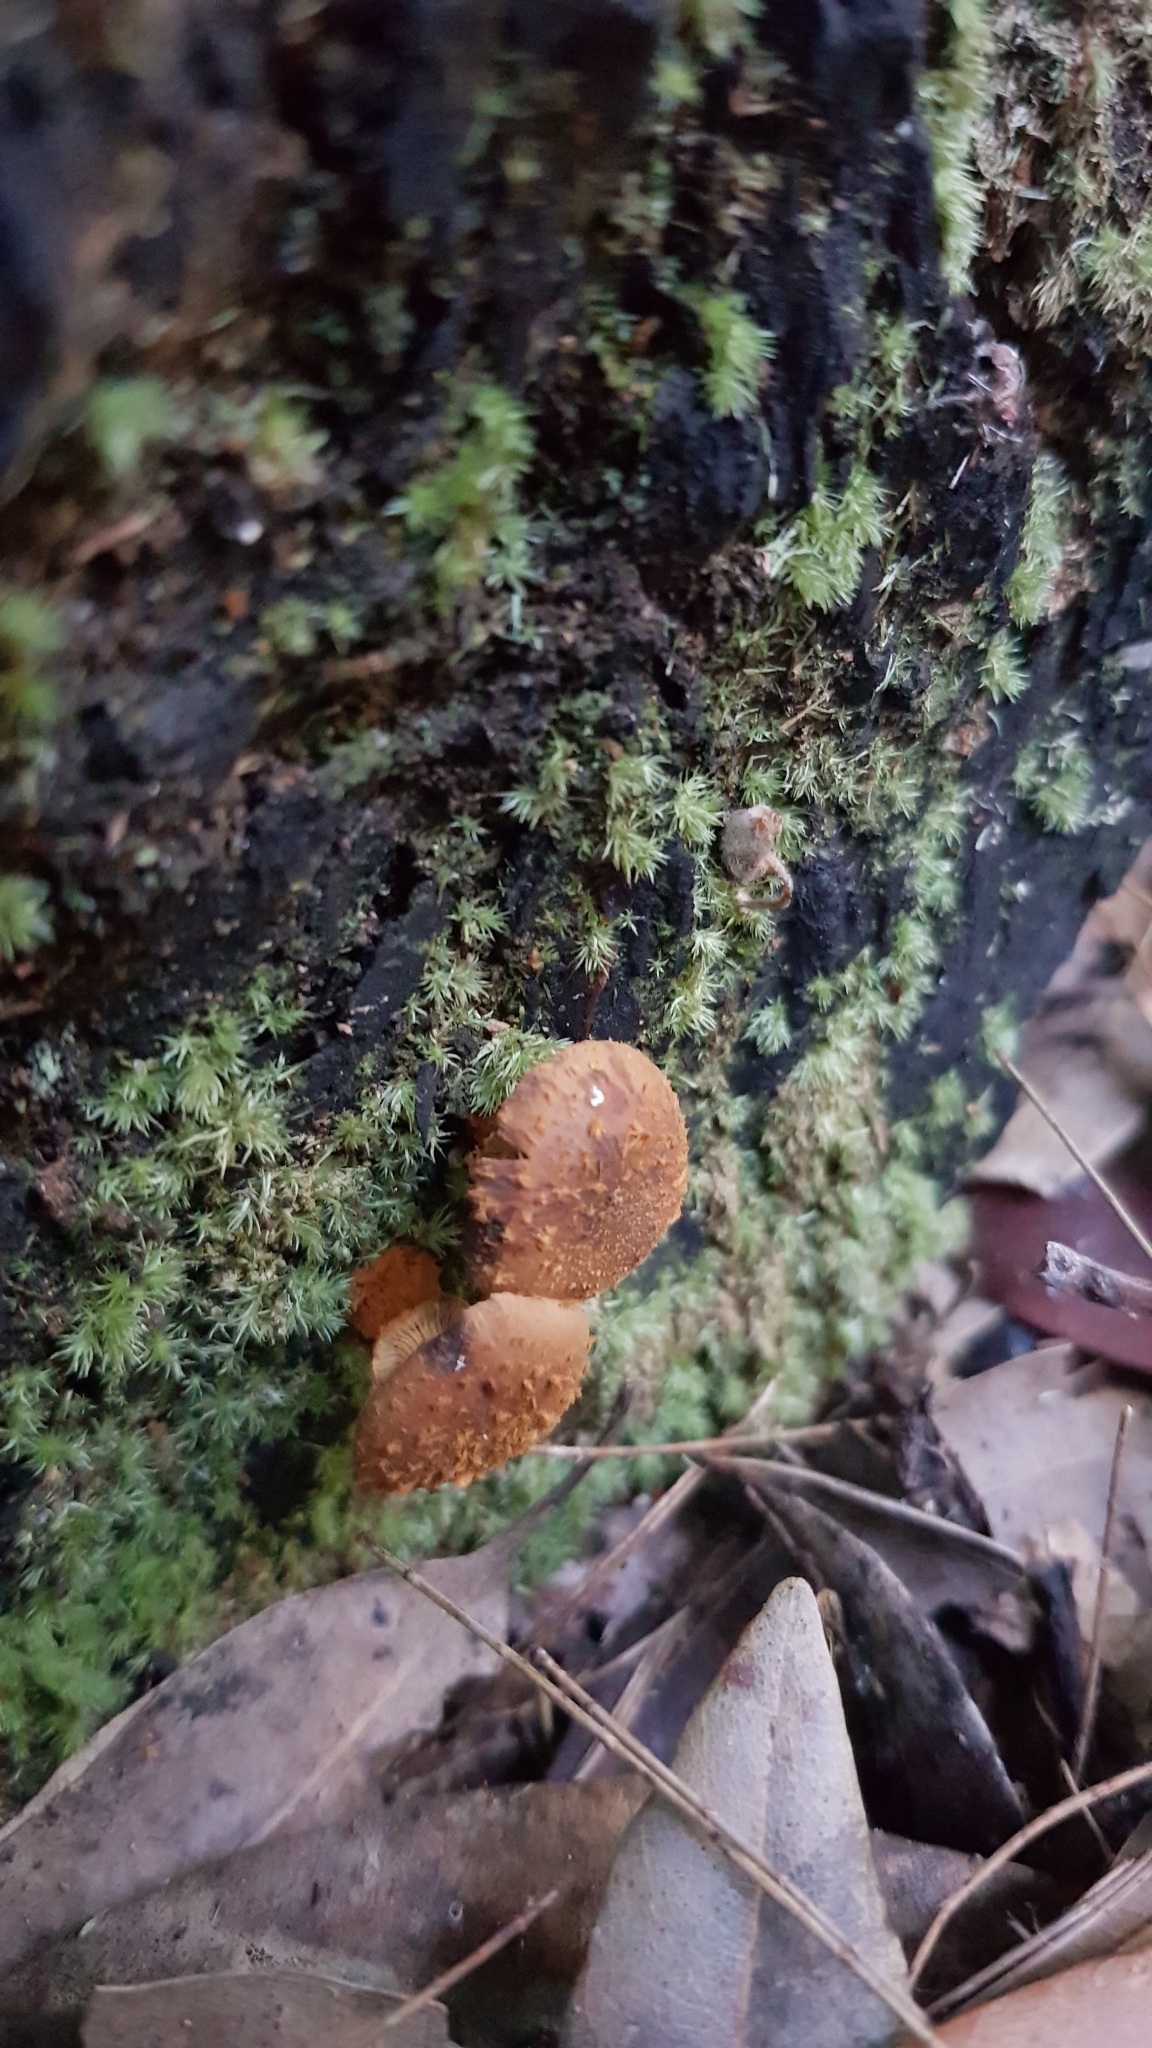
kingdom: Fungi
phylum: Basidiomycota
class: Agaricomycetes
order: Agaricales
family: Bolbitiaceae
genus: Descolea
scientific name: Descolea recedens
